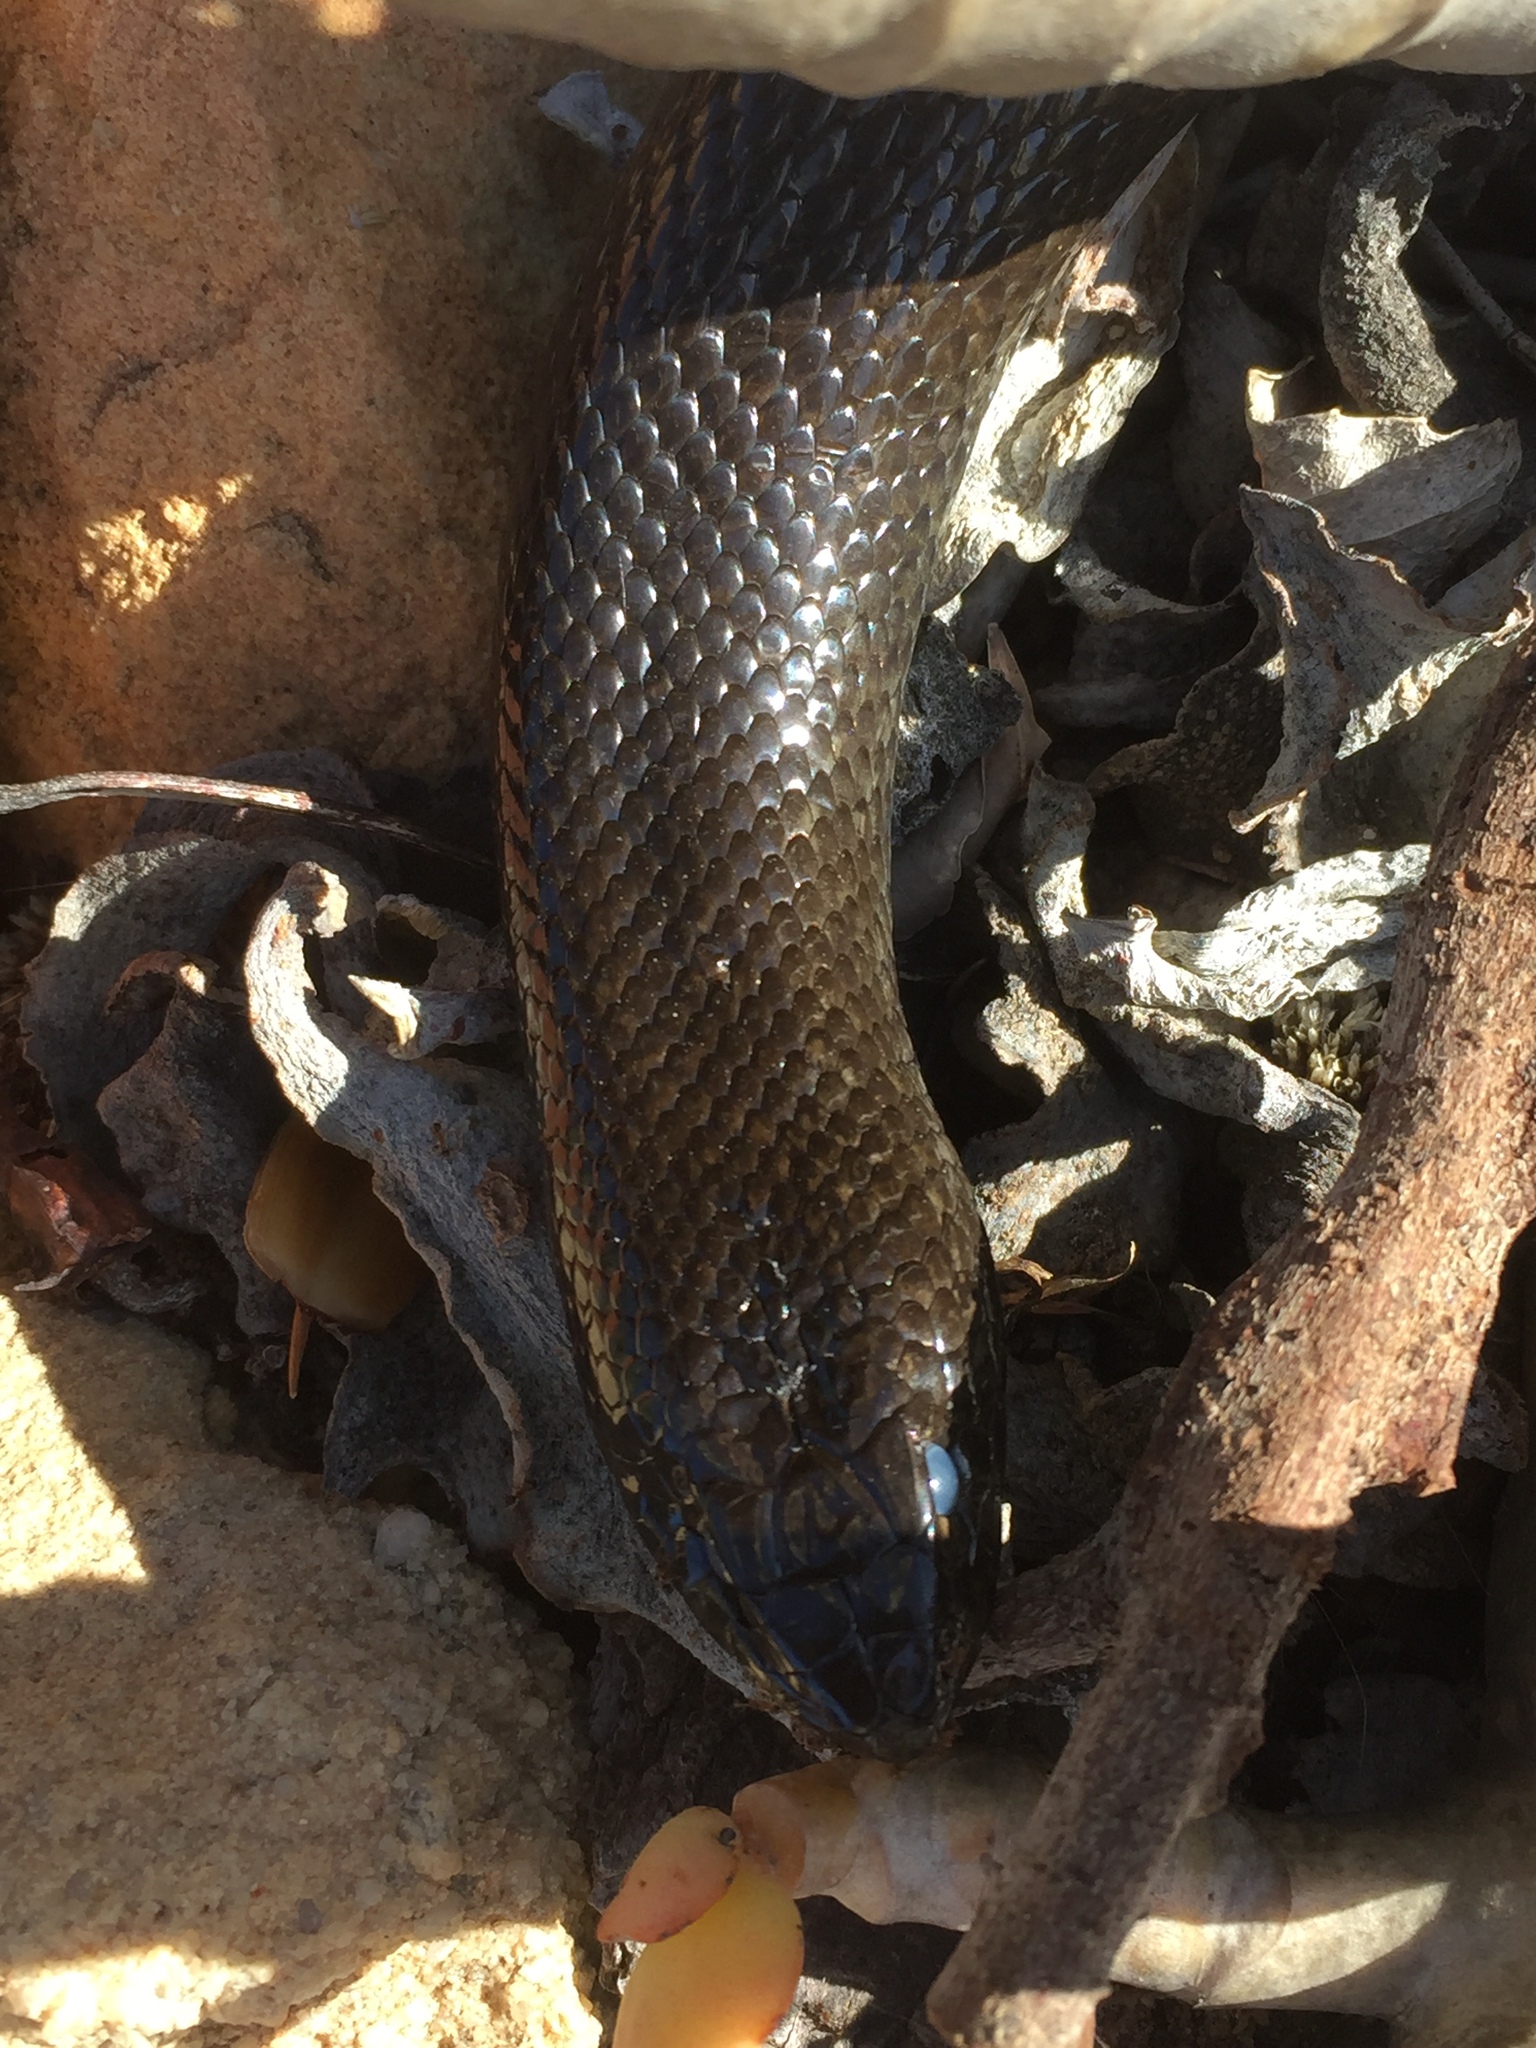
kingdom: Animalia
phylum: Chordata
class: Squamata
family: Pseudaspididae
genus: Pseudaspis
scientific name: Pseudaspis cana
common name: Mole snake
